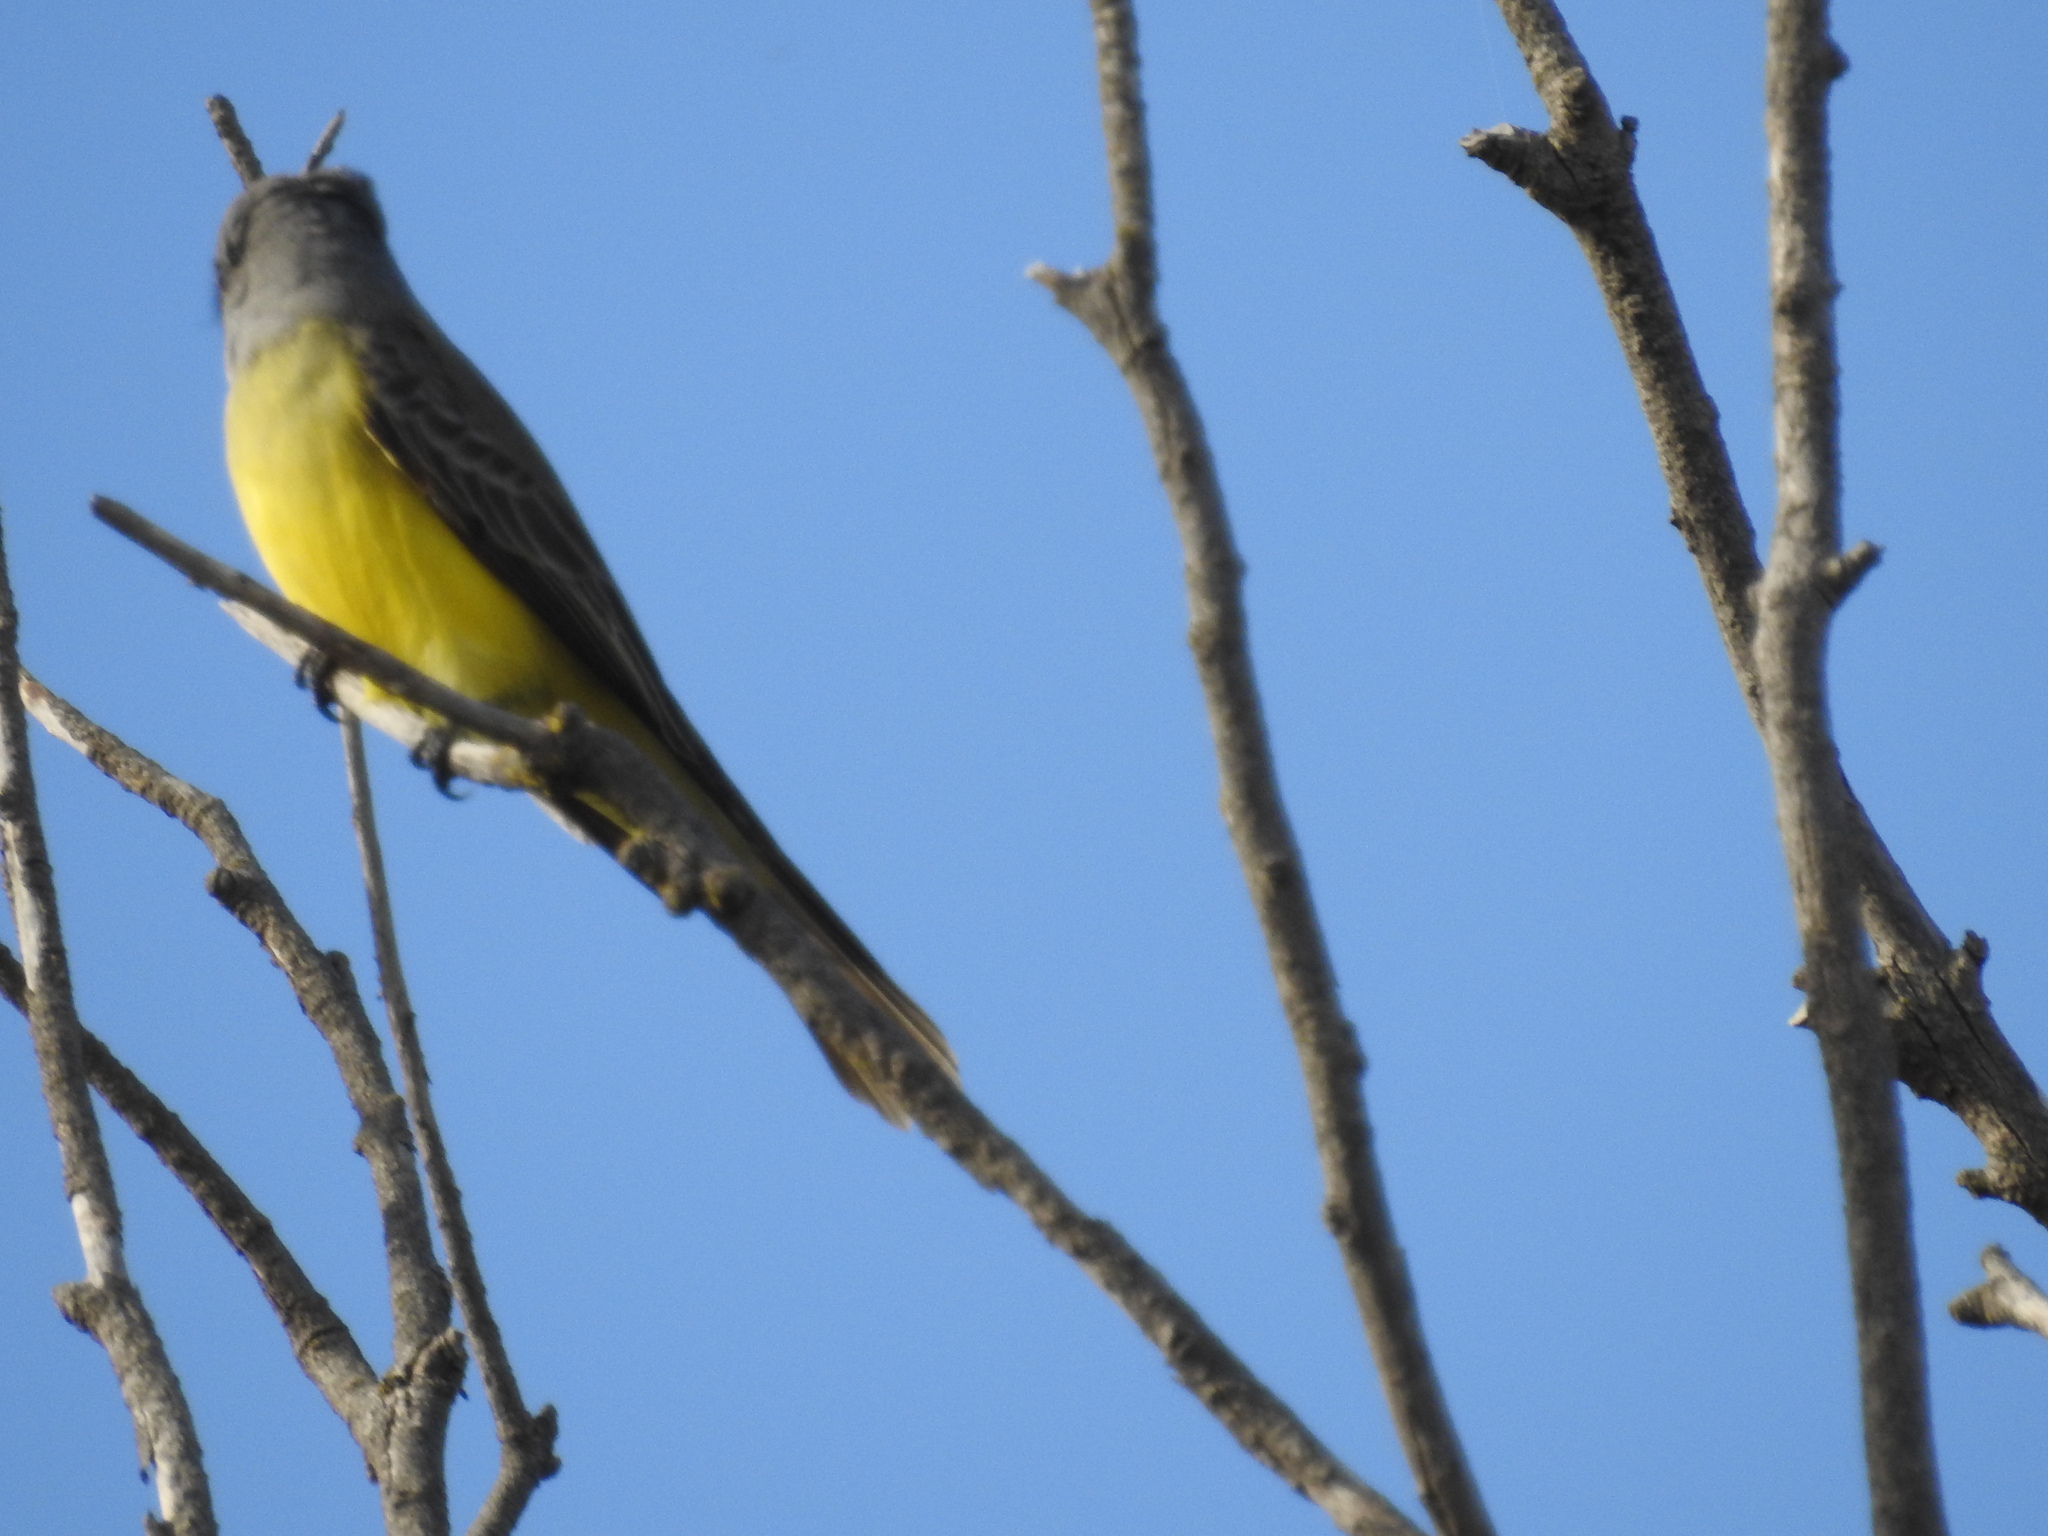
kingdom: Animalia
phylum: Chordata
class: Aves
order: Passeriformes
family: Tyrannidae
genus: Tyrannus
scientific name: Tyrannus melancholicus
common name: Tropical kingbird
